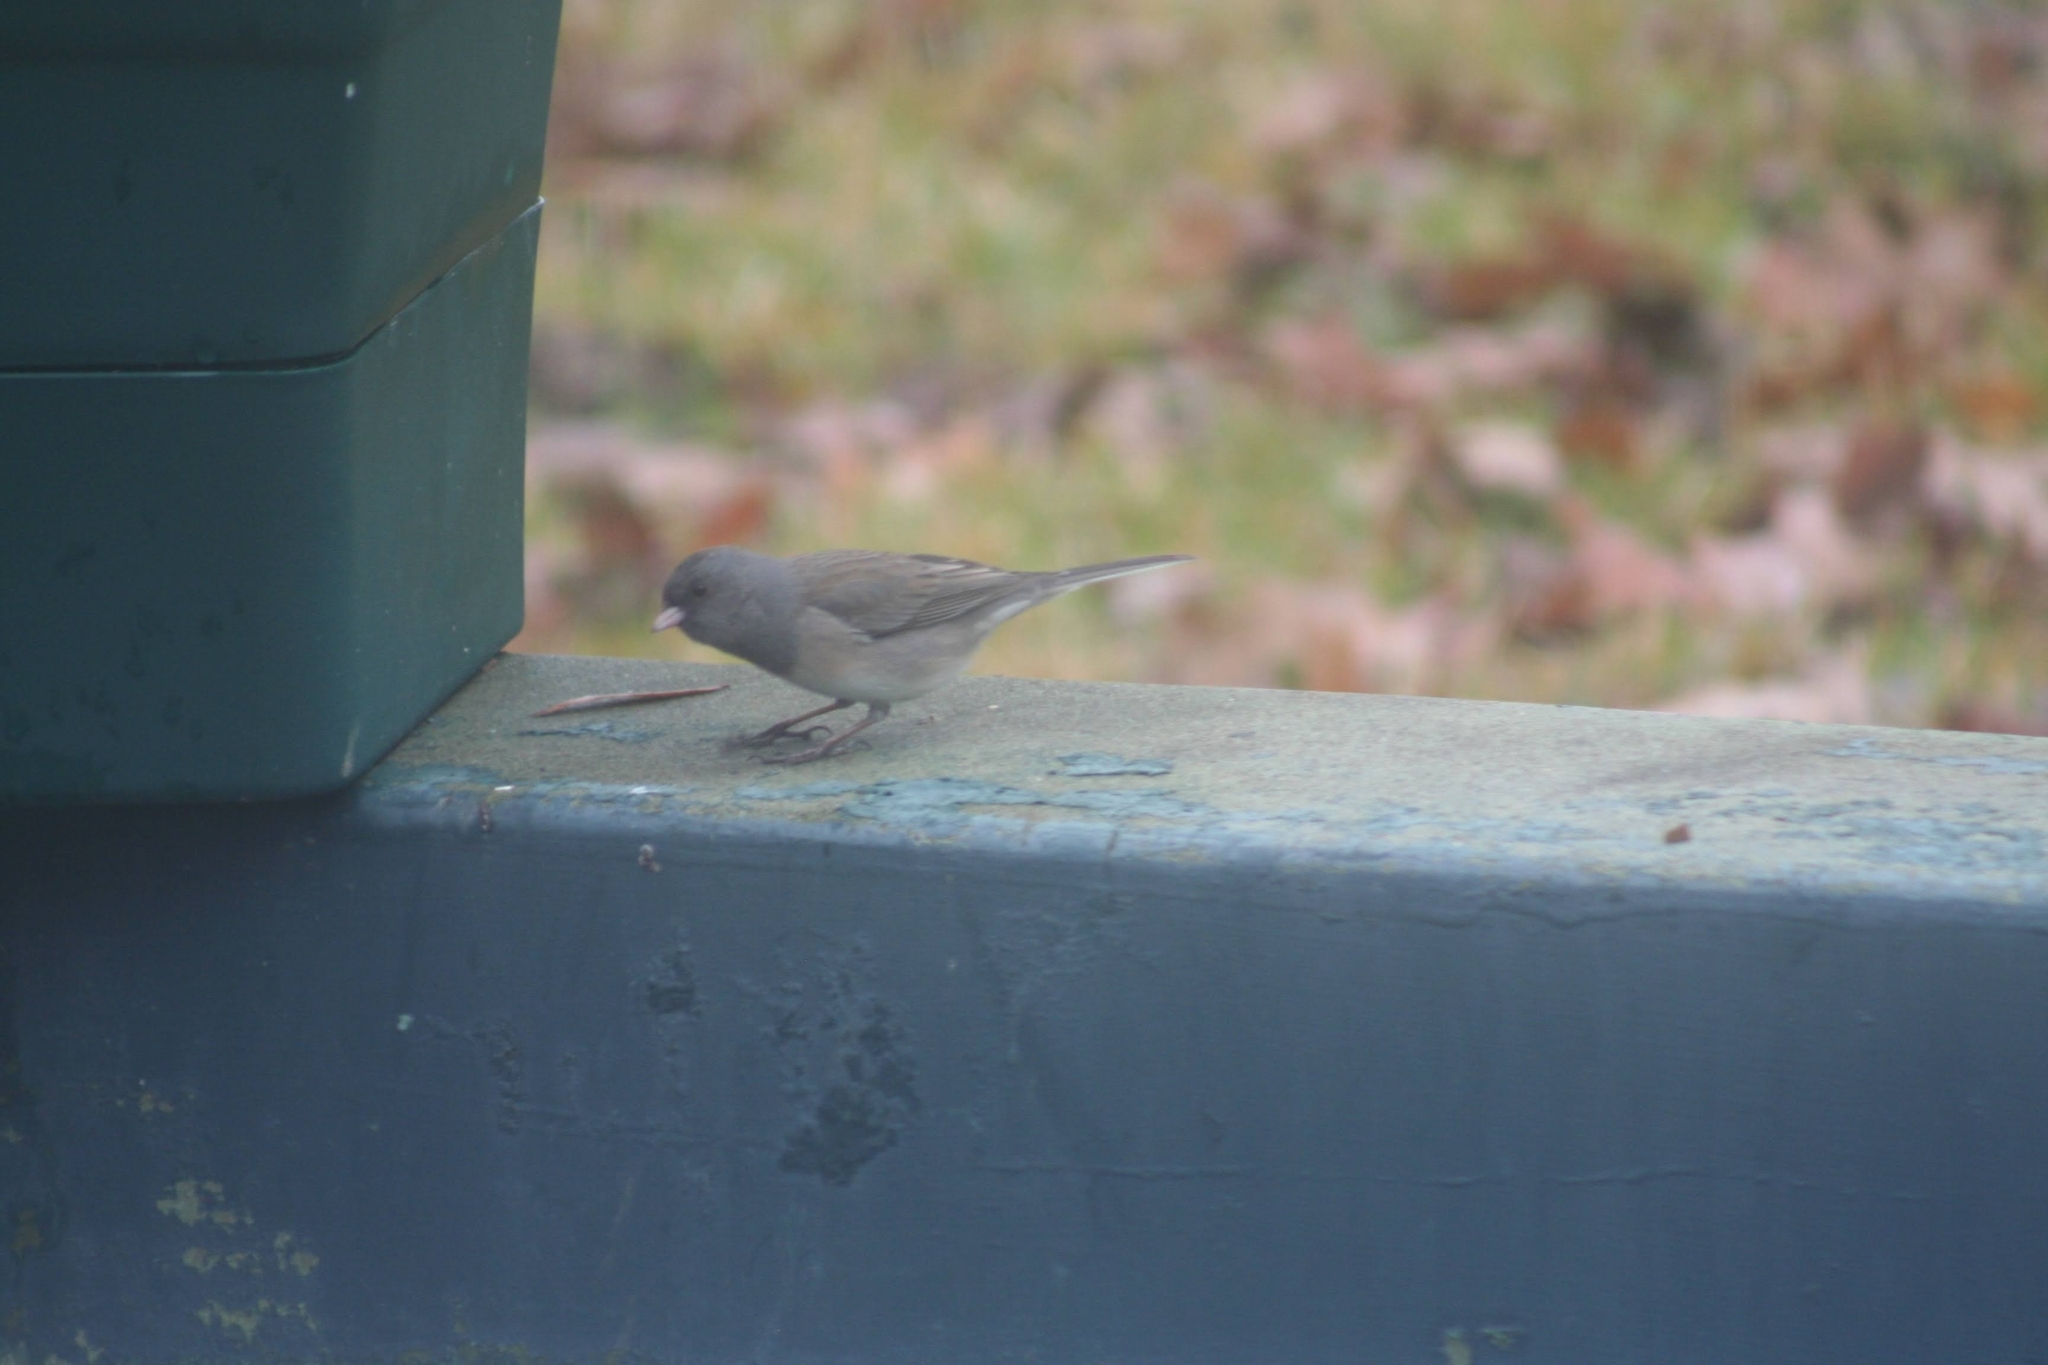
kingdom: Animalia
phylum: Chordata
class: Aves
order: Passeriformes
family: Passerellidae
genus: Junco
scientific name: Junco hyemalis
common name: Dark-eyed junco
